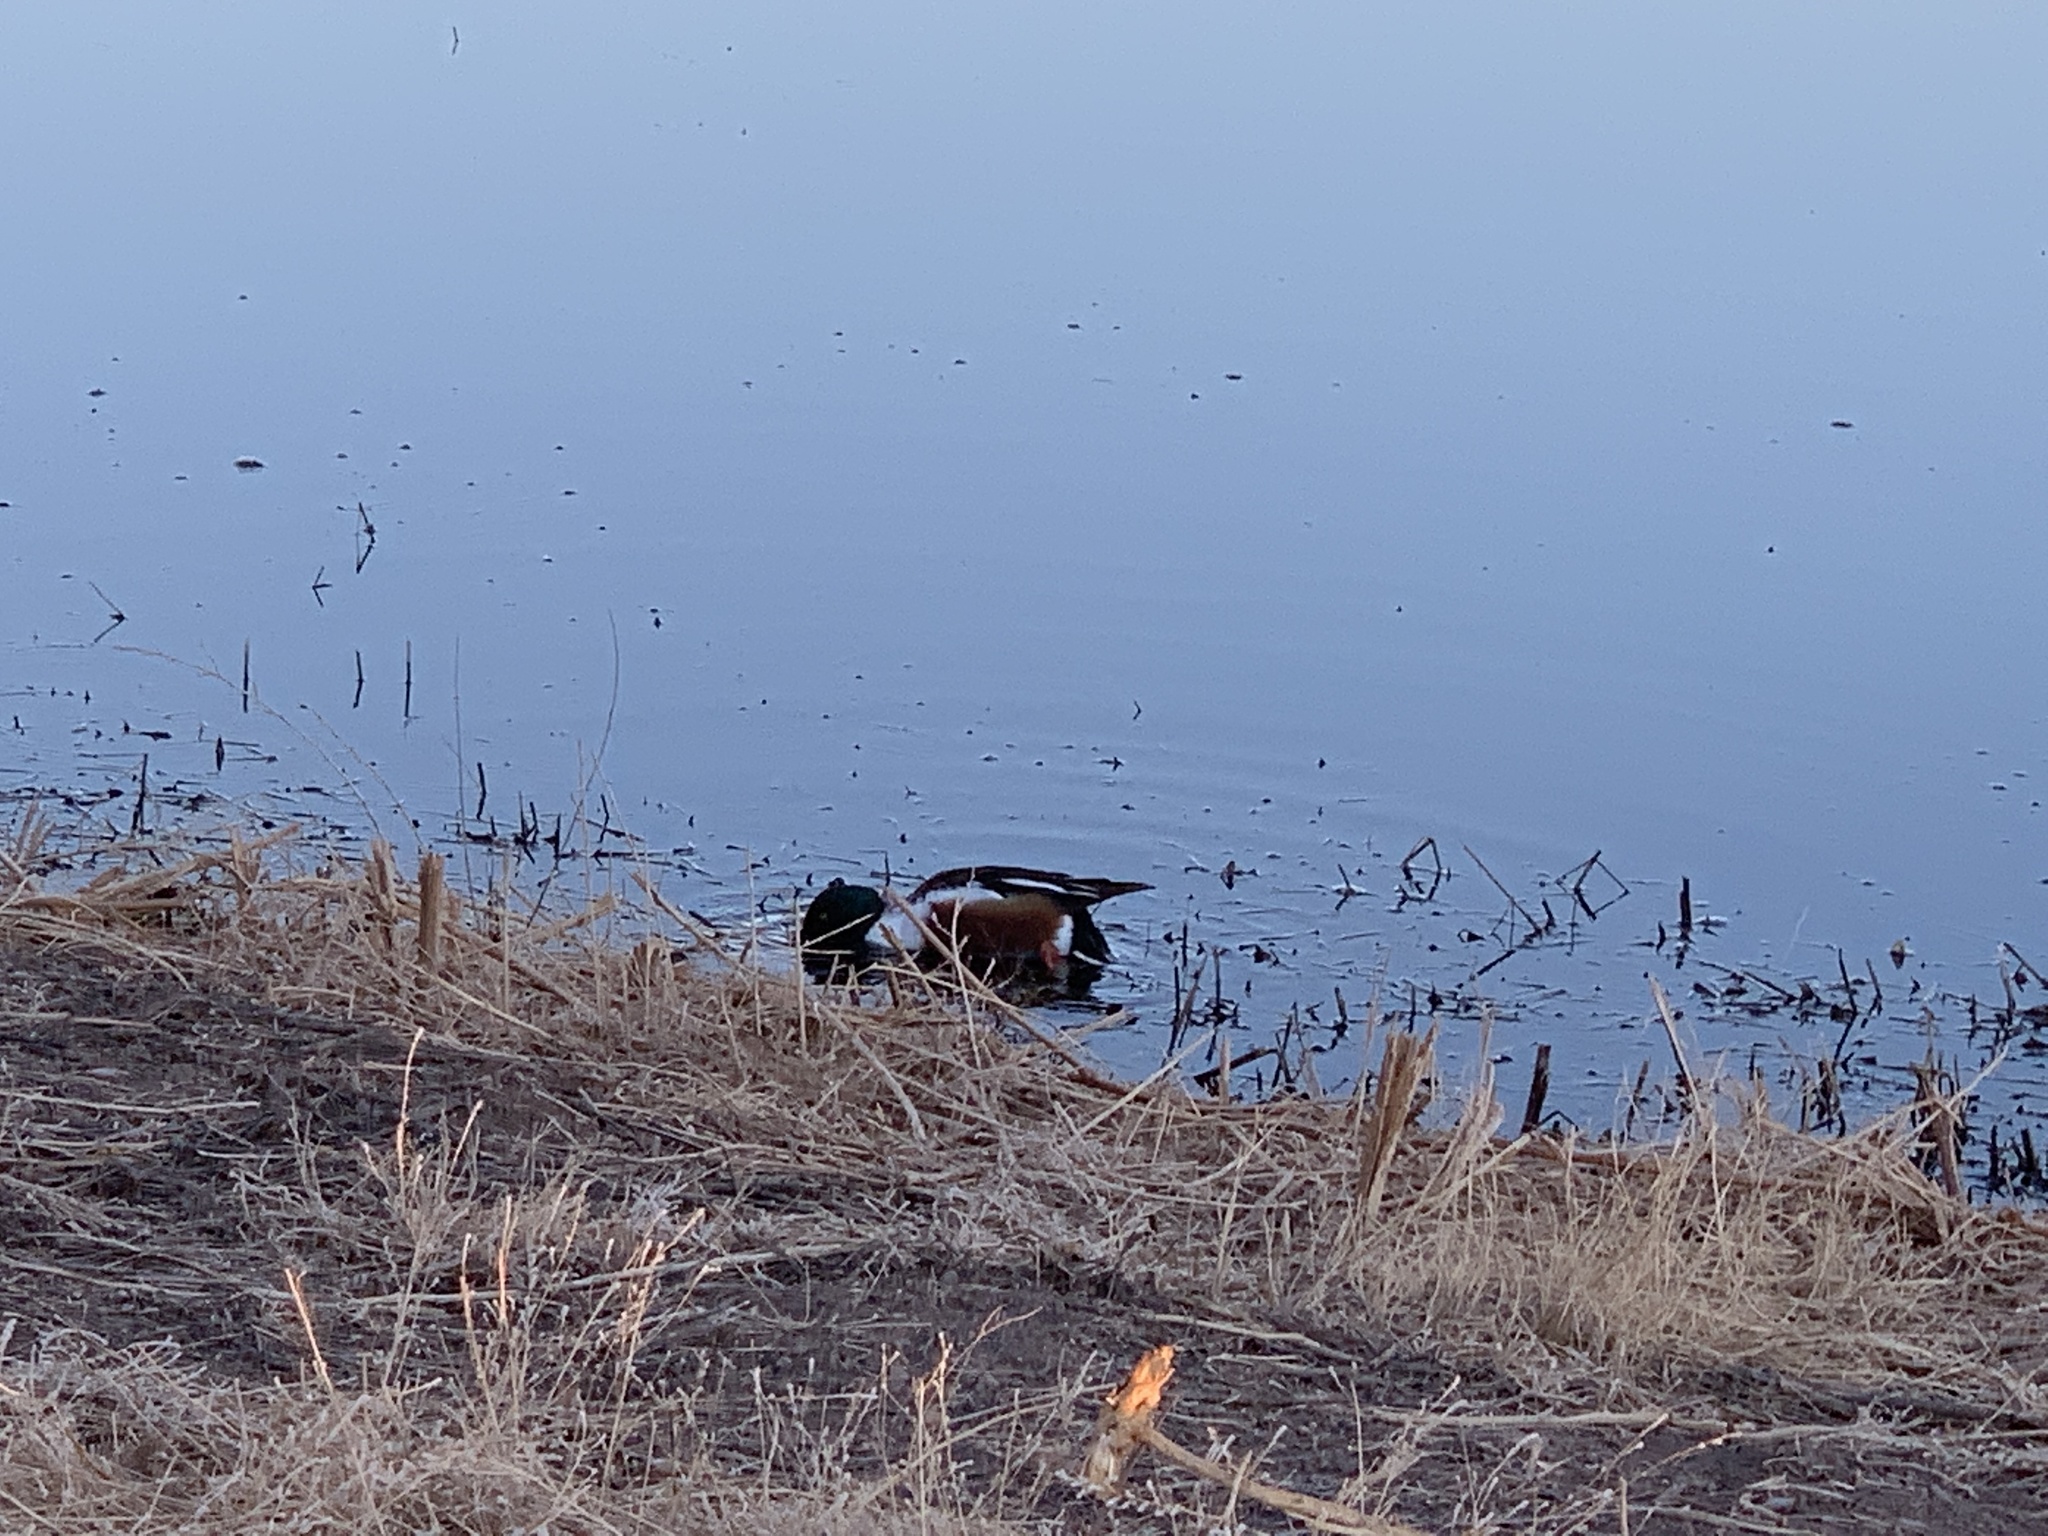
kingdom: Animalia
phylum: Chordata
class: Aves
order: Anseriformes
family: Anatidae
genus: Spatula
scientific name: Spatula clypeata
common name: Northern shoveler
